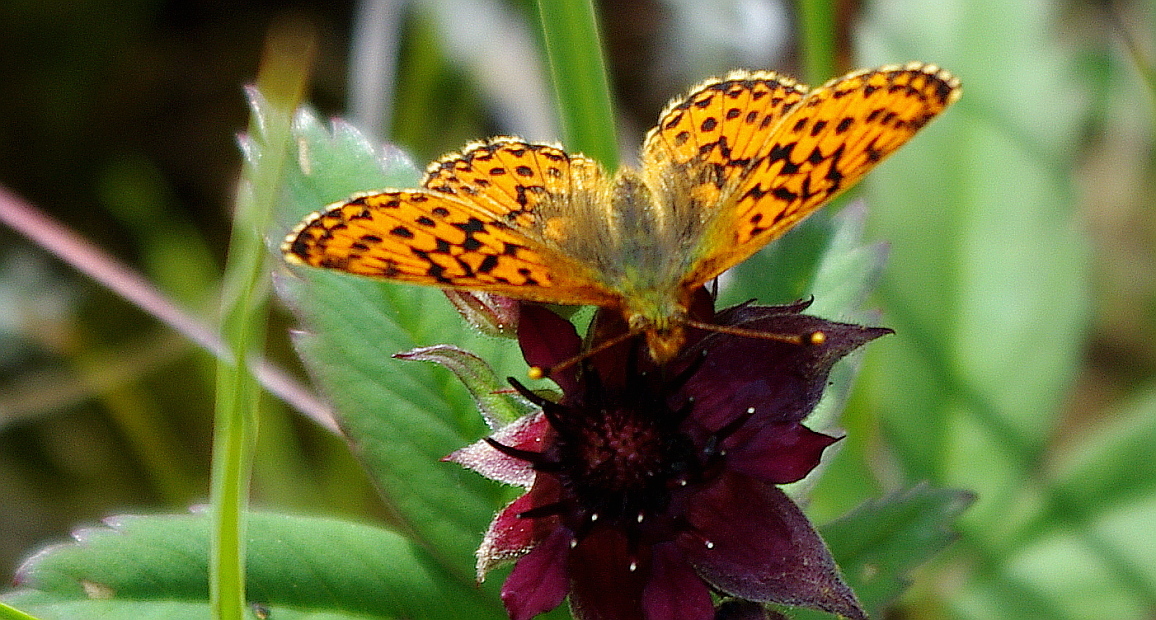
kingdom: Animalia
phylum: Arthropoda
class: Insecta
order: Lepidoptera
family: Nymphalidae
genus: Clossiana
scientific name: Clossiana euphrosyne
